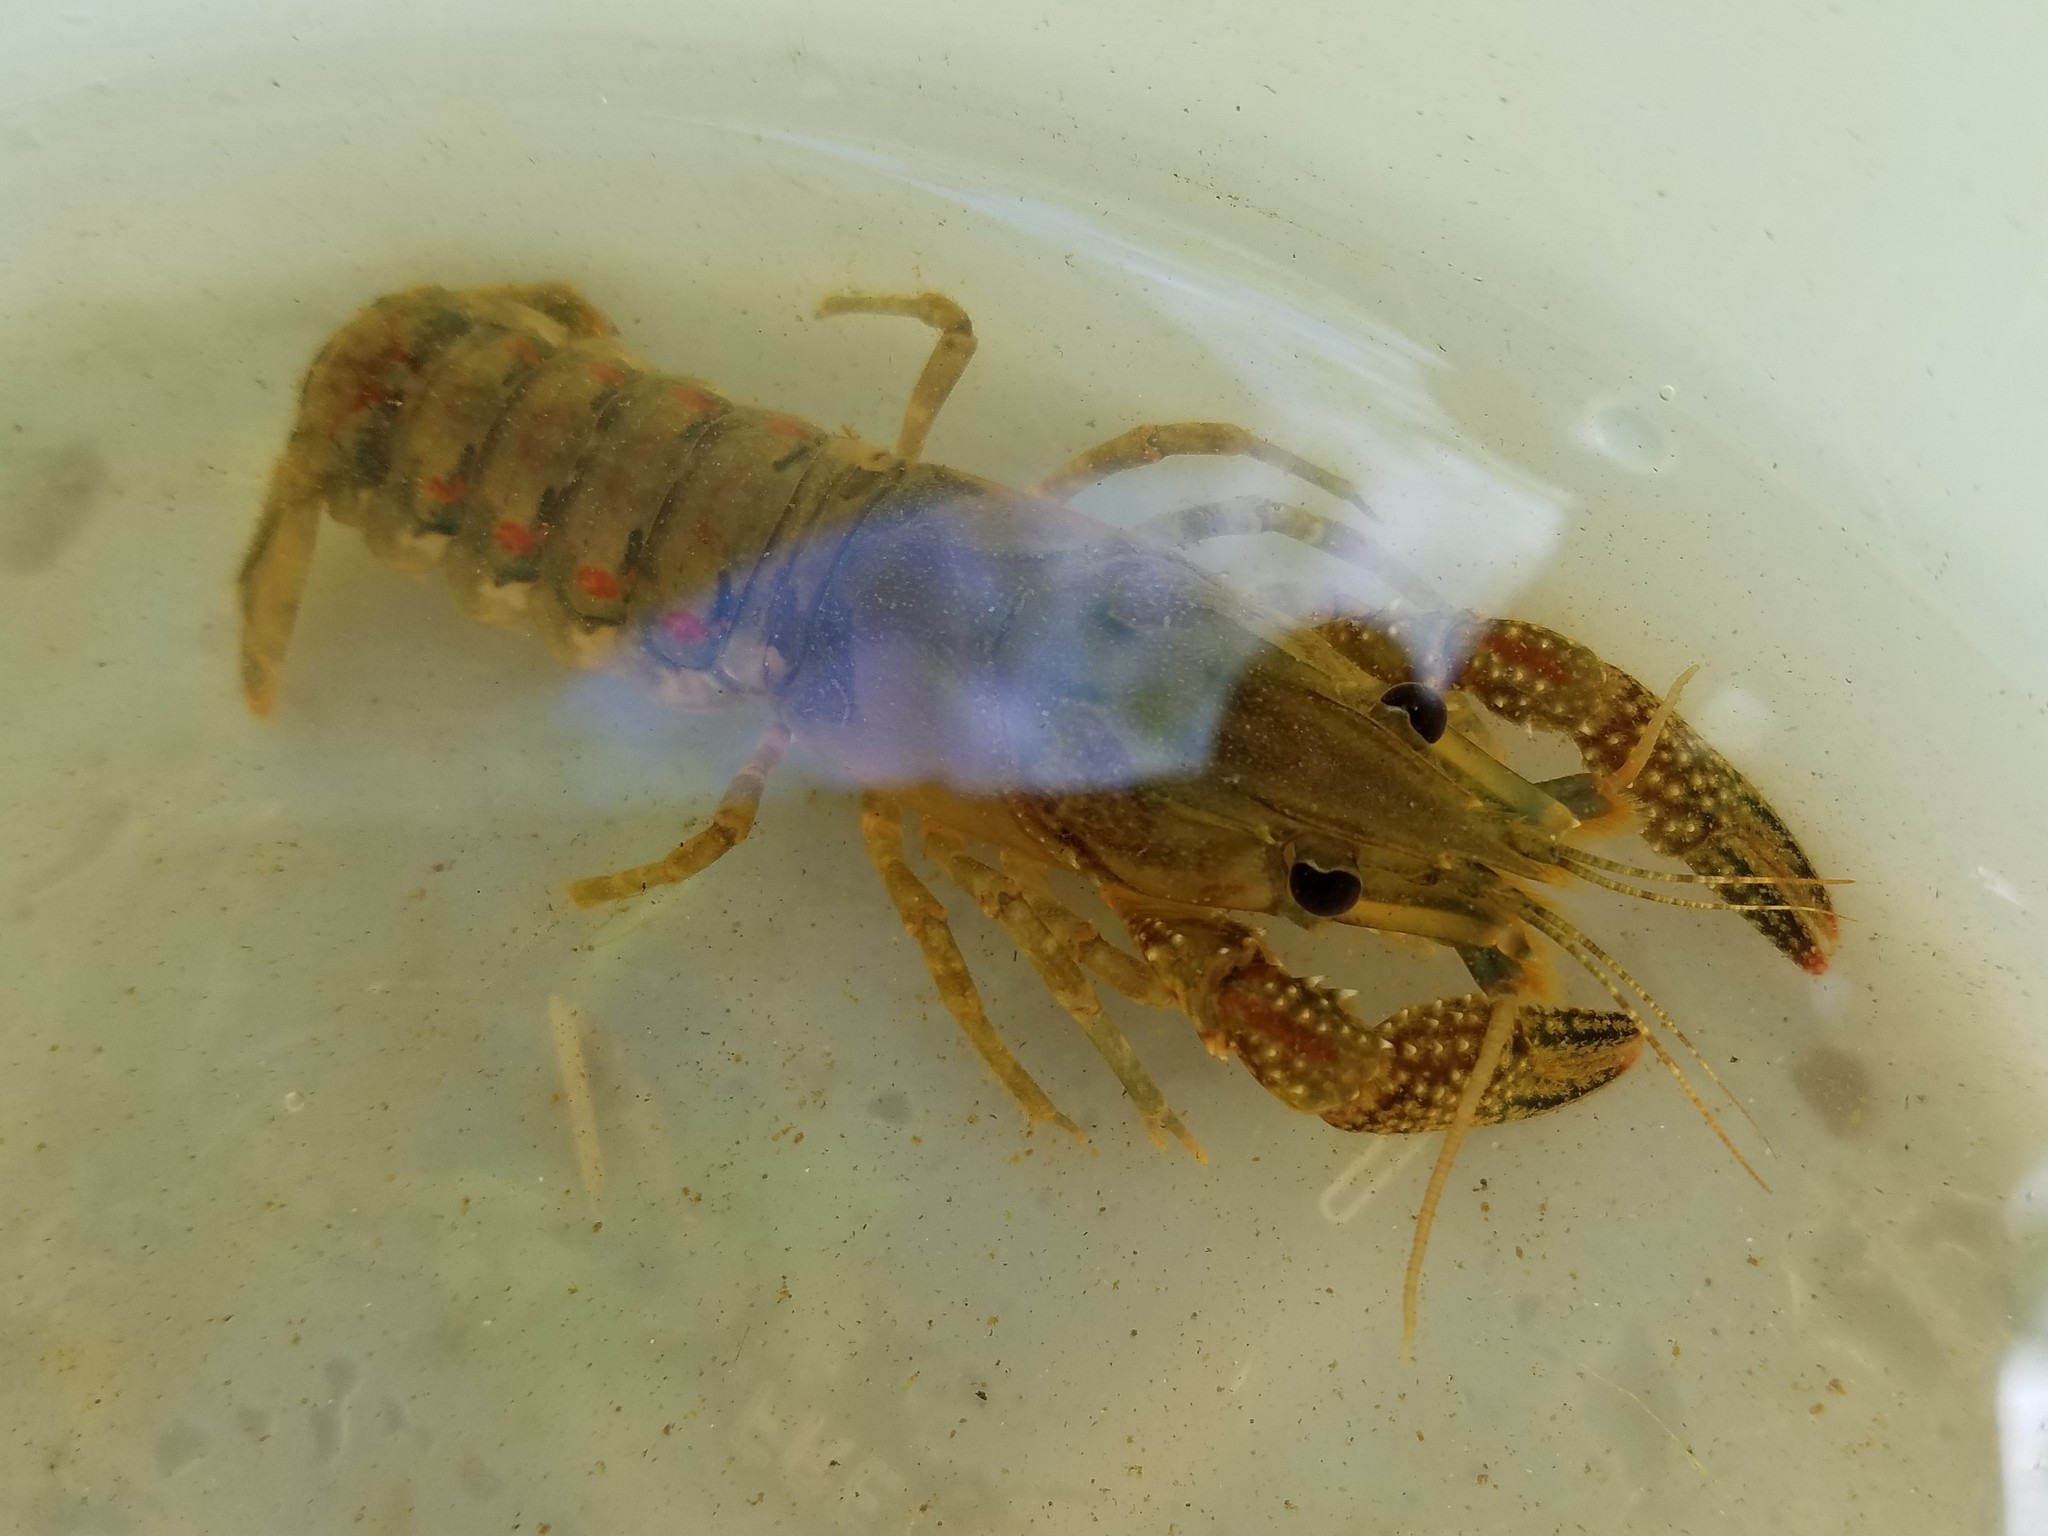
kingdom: Animalia
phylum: Arthropoda
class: Malacostraca
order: Decapoda
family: Cambaridae
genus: Procambarus
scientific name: Procambarus spiculifer
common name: White tubercled crayfish
